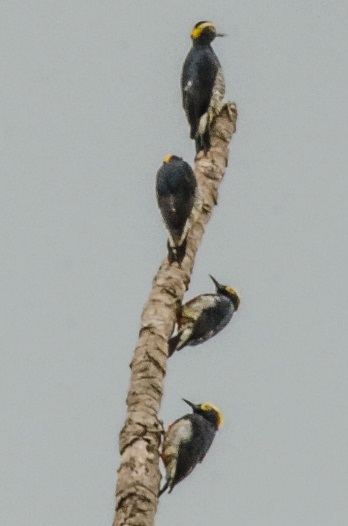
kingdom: Animalia
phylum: Chordata
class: Aves
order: Piciformes
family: Picidae
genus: Melanerpes
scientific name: Melanerpes cruentatus
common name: Yellow-tufted woodpecker
